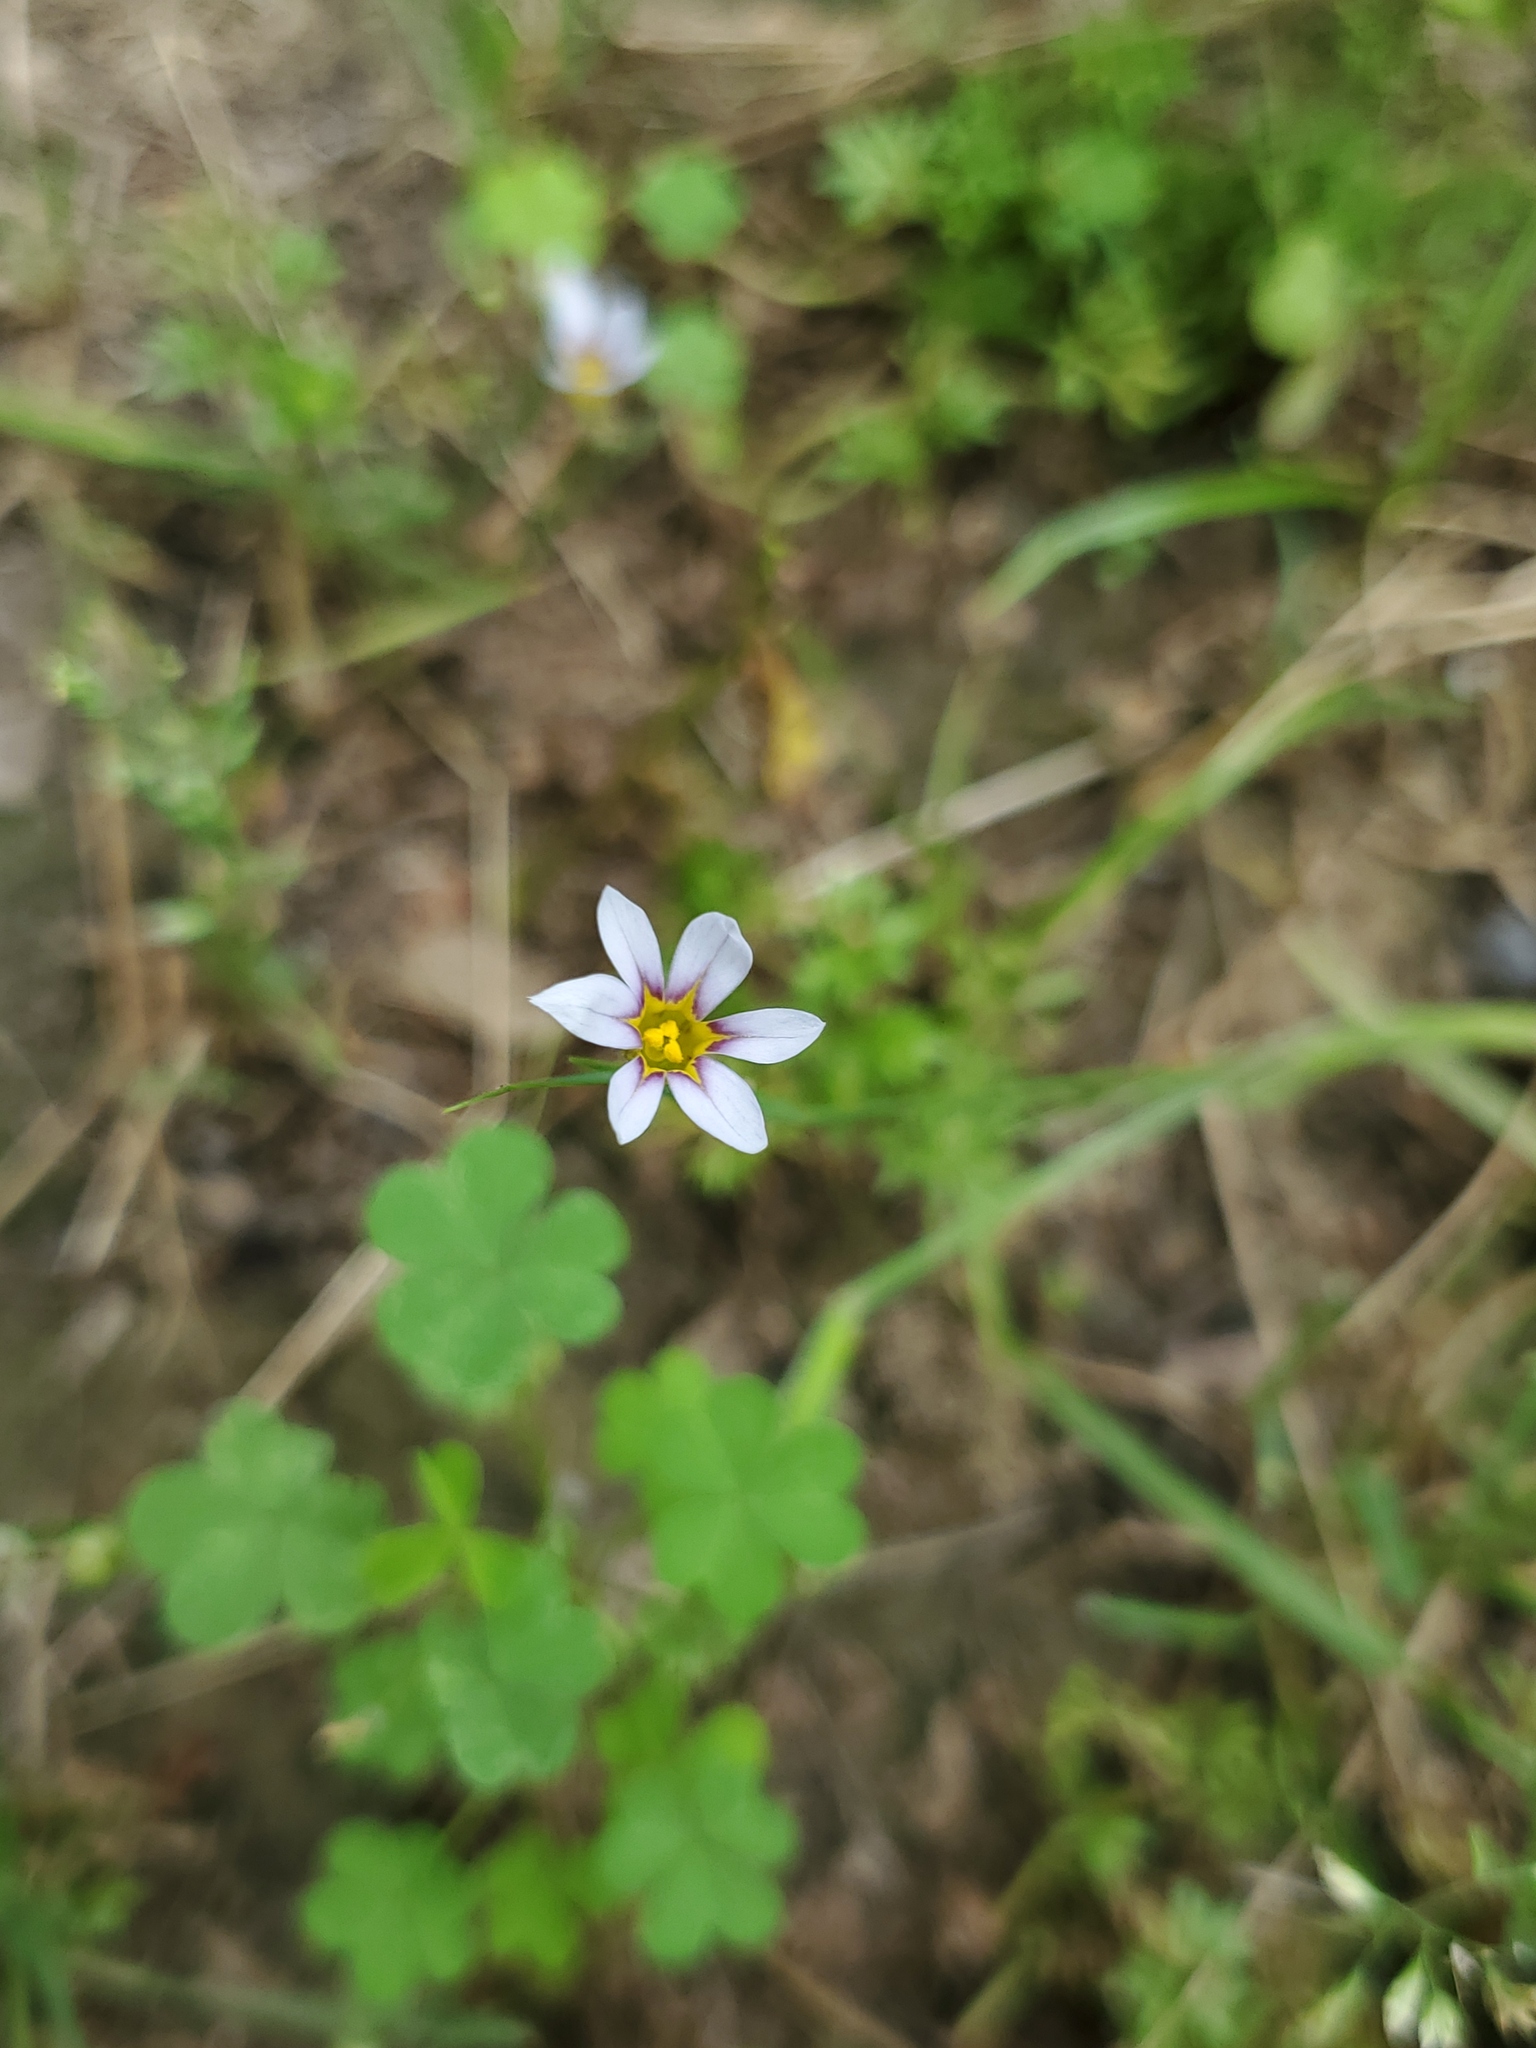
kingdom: Plantae
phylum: Tracheophyta
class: Liliopsida
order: Asparagales
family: Iridaceae
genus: Sisyrinchium
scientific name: Sisyrinchium micranthum
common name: Bermuda pigroot
